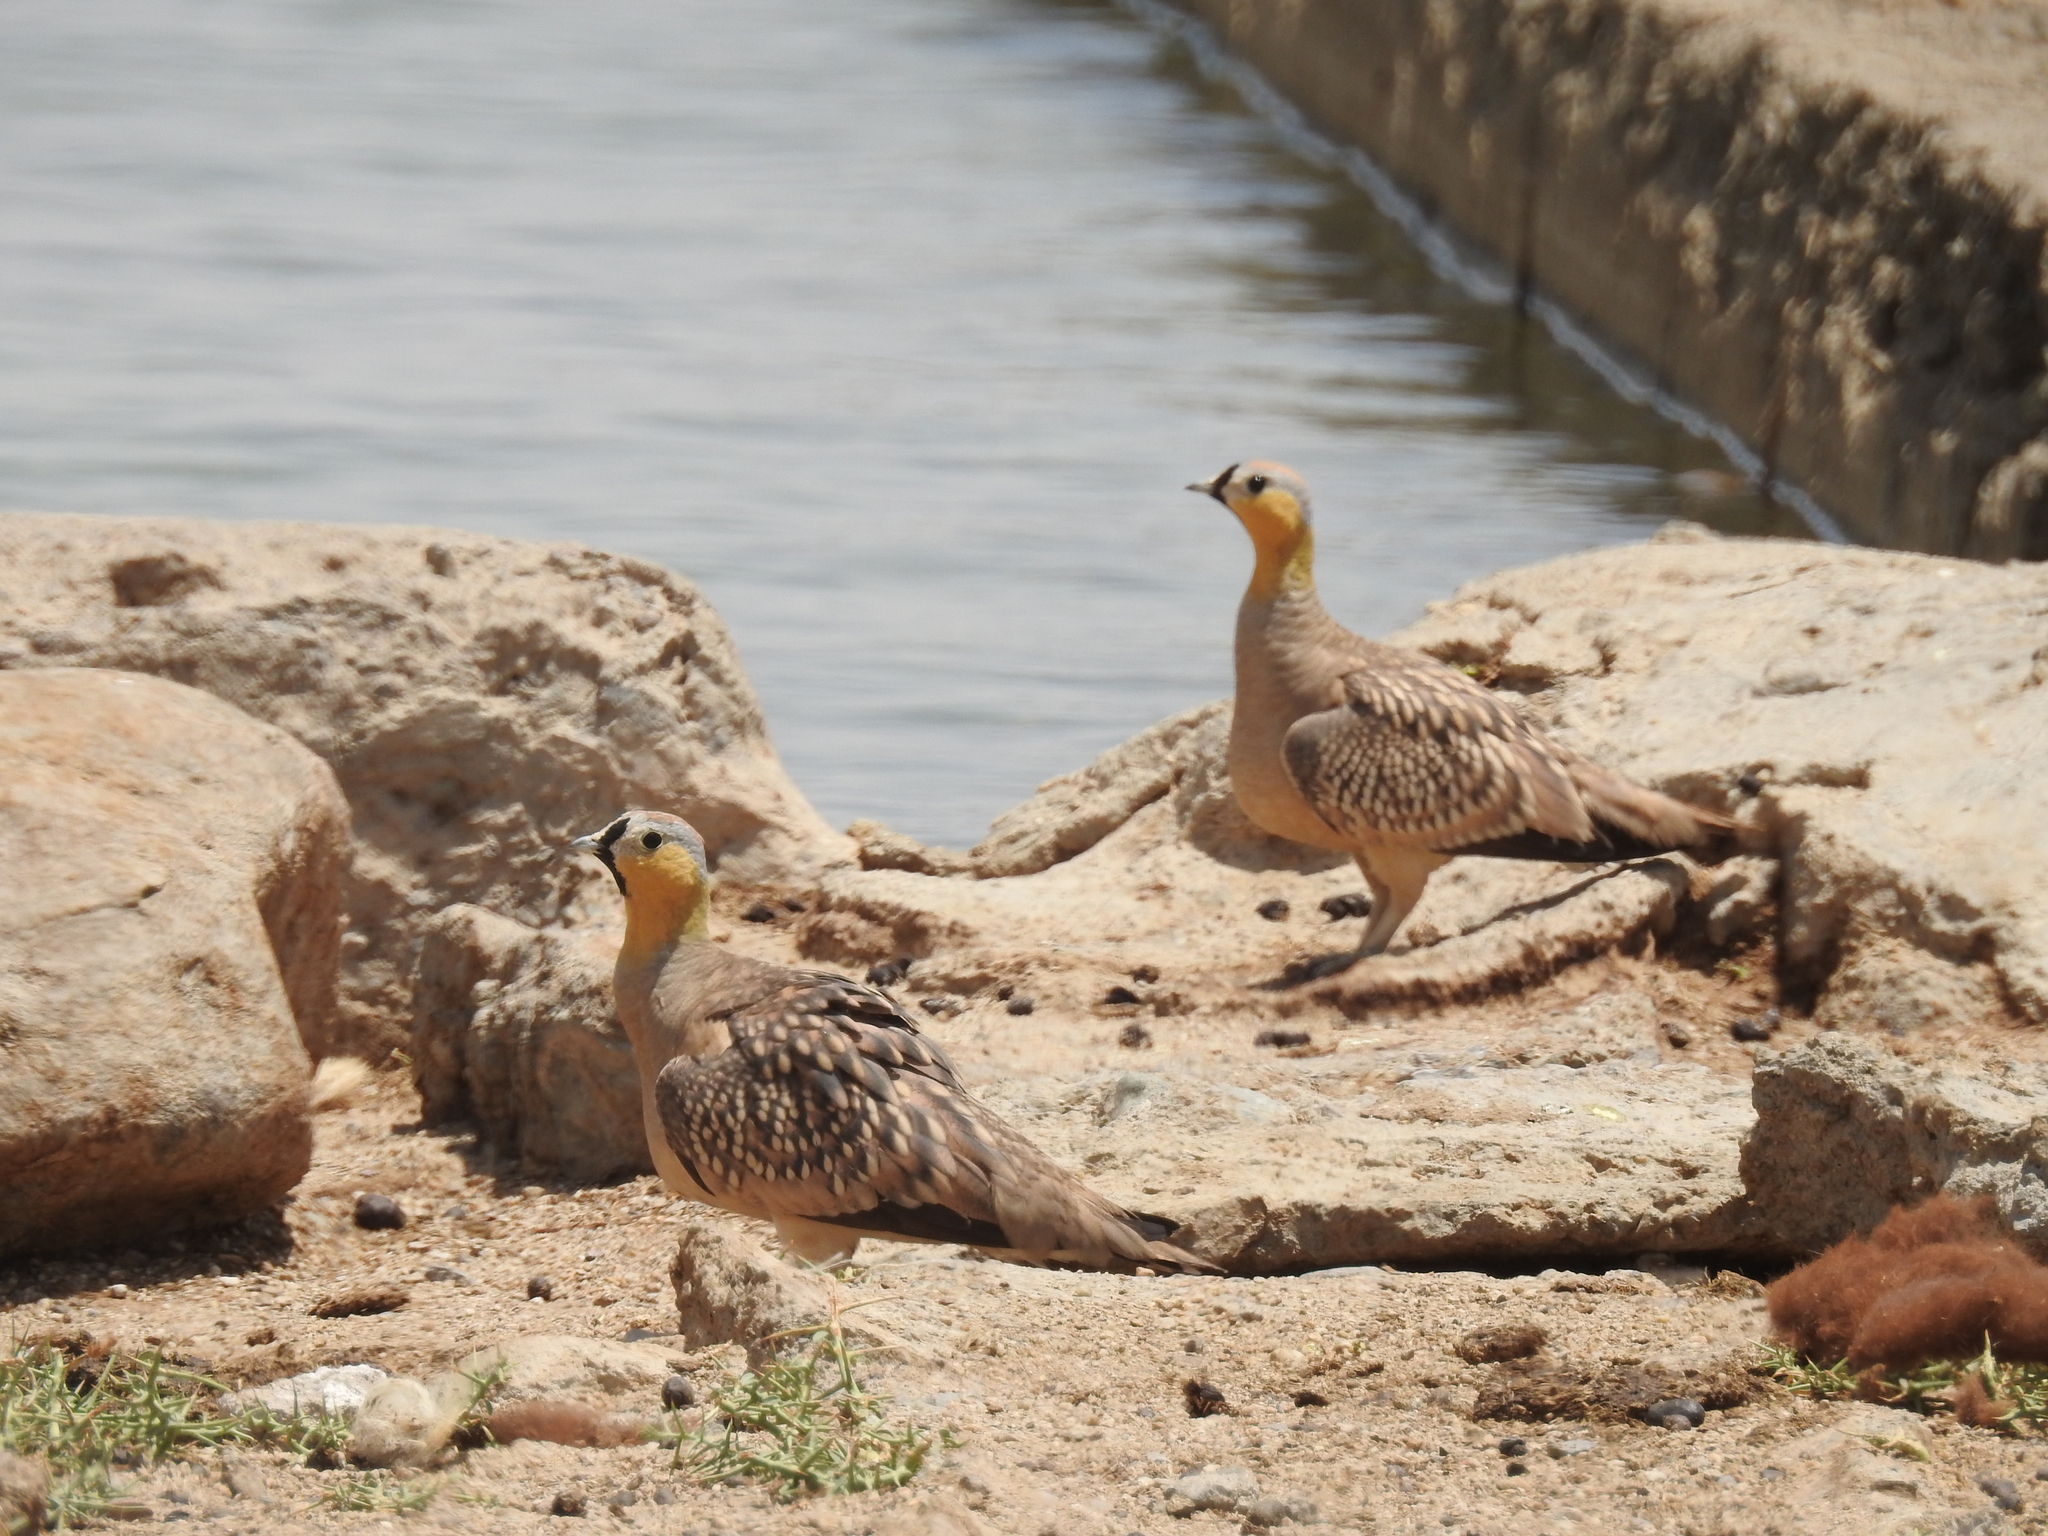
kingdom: Animalia
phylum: Chordata
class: Aves
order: Pteroclidiformes
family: Pteroclididae
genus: Pterocles
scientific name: Pterocles coronatus
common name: Crowned sandgrouse
